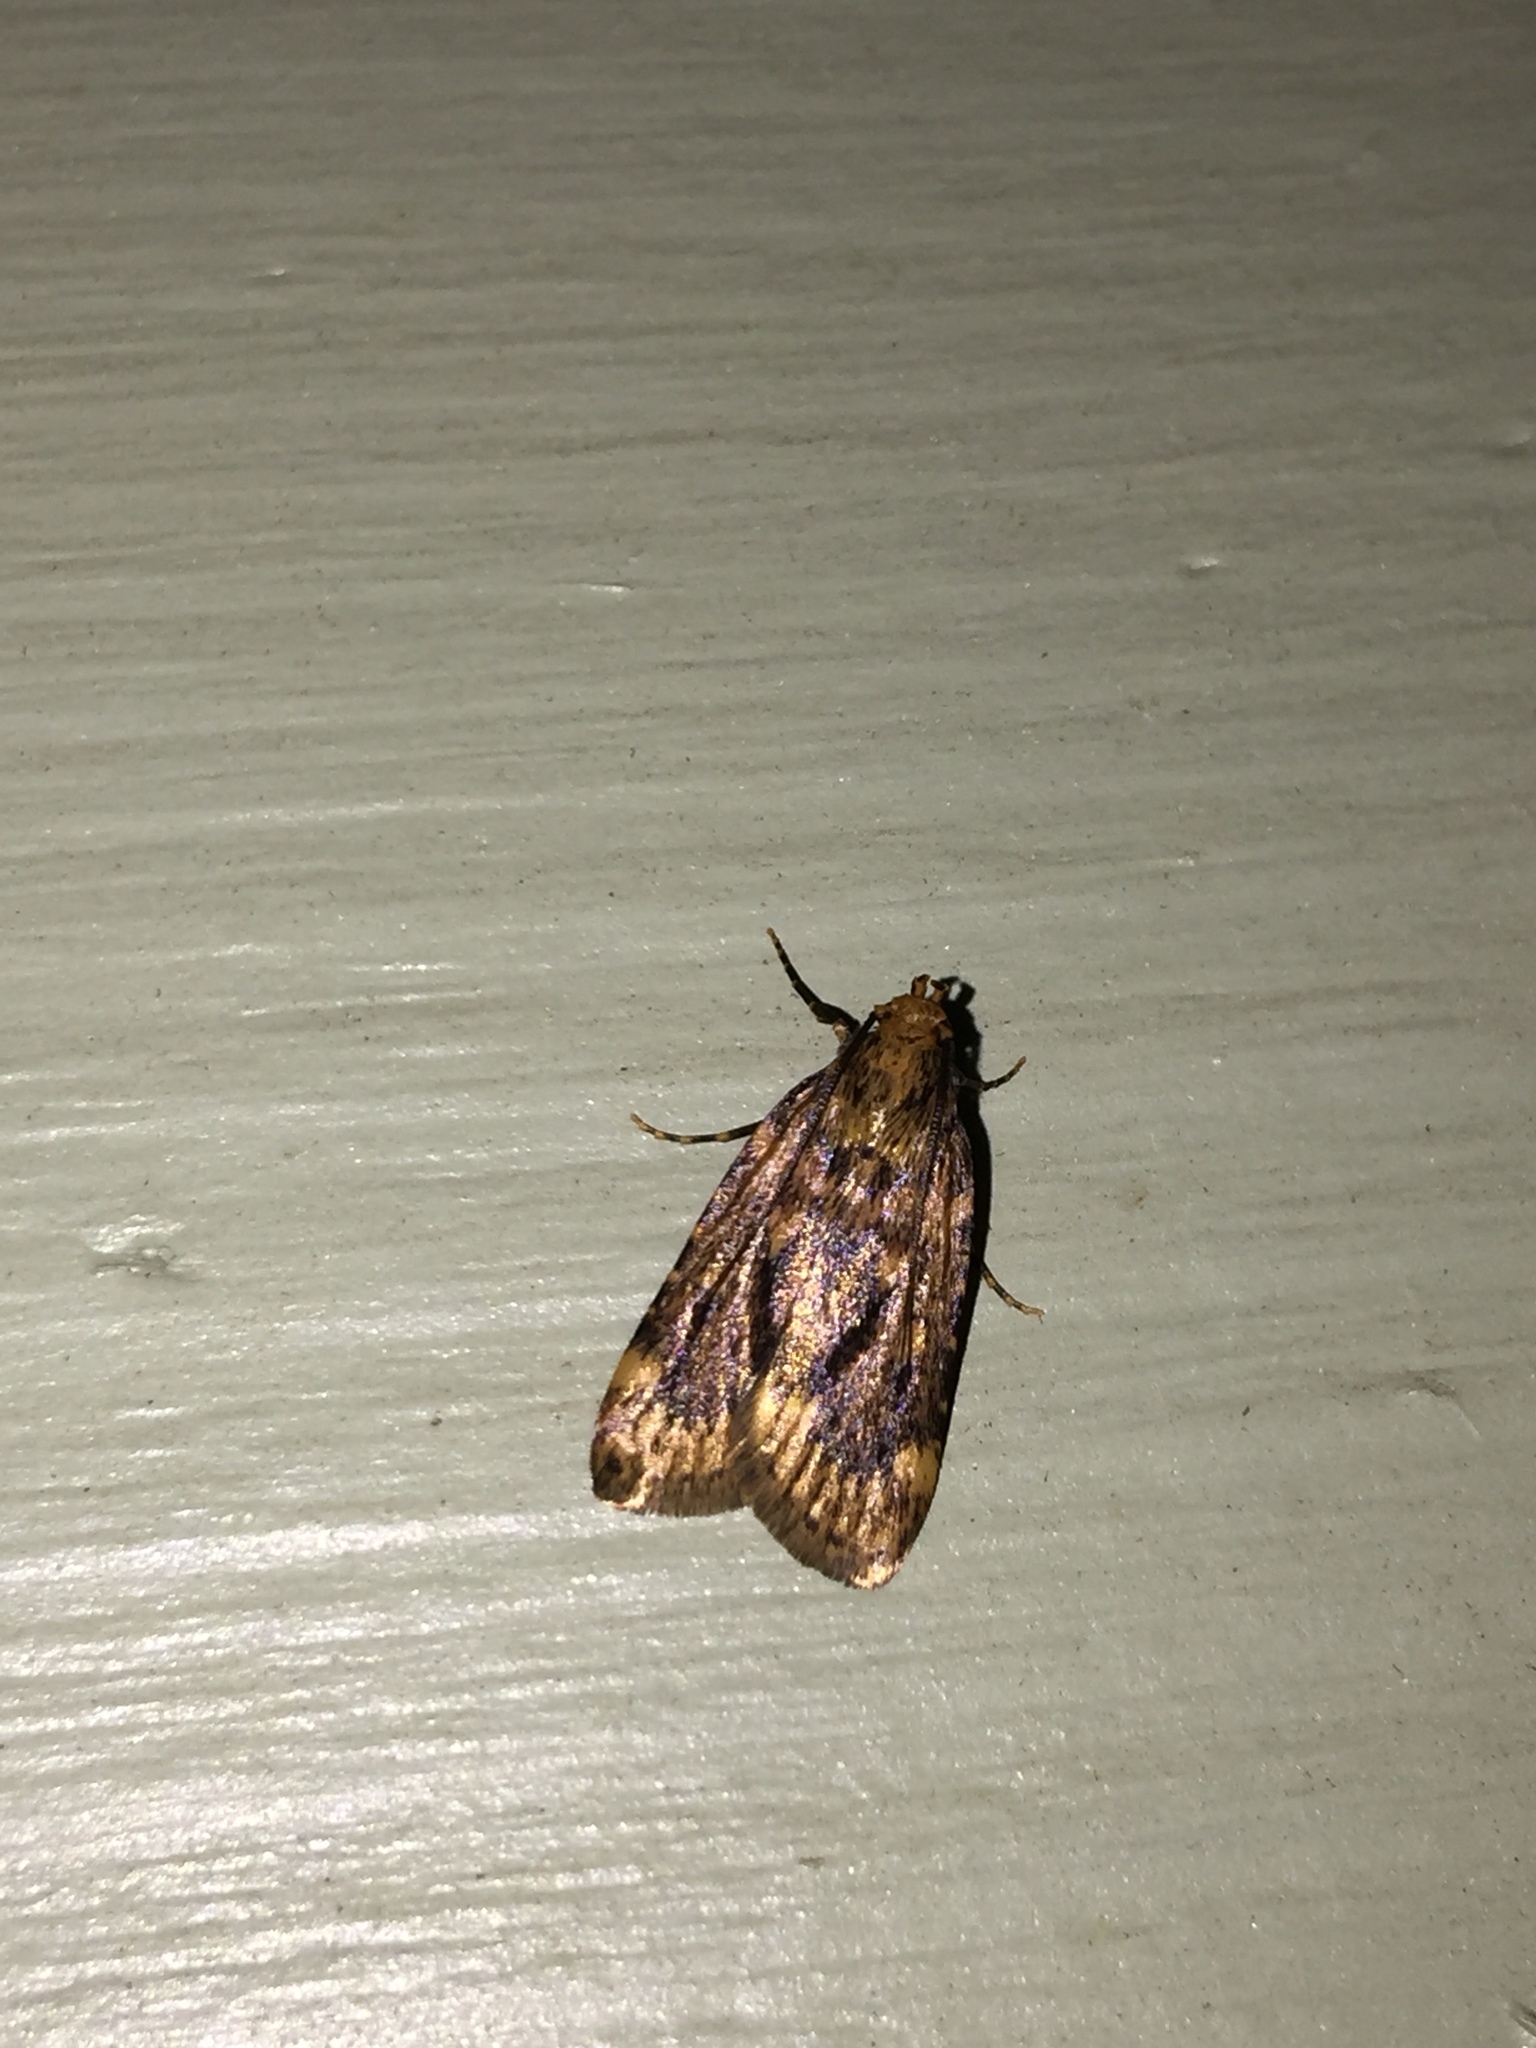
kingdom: Animalia
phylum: Arthropoda
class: Insecta
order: Lepidoptera
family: Pyralidae
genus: Aglossa
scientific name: Aglossa cuprina
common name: Grease moth
